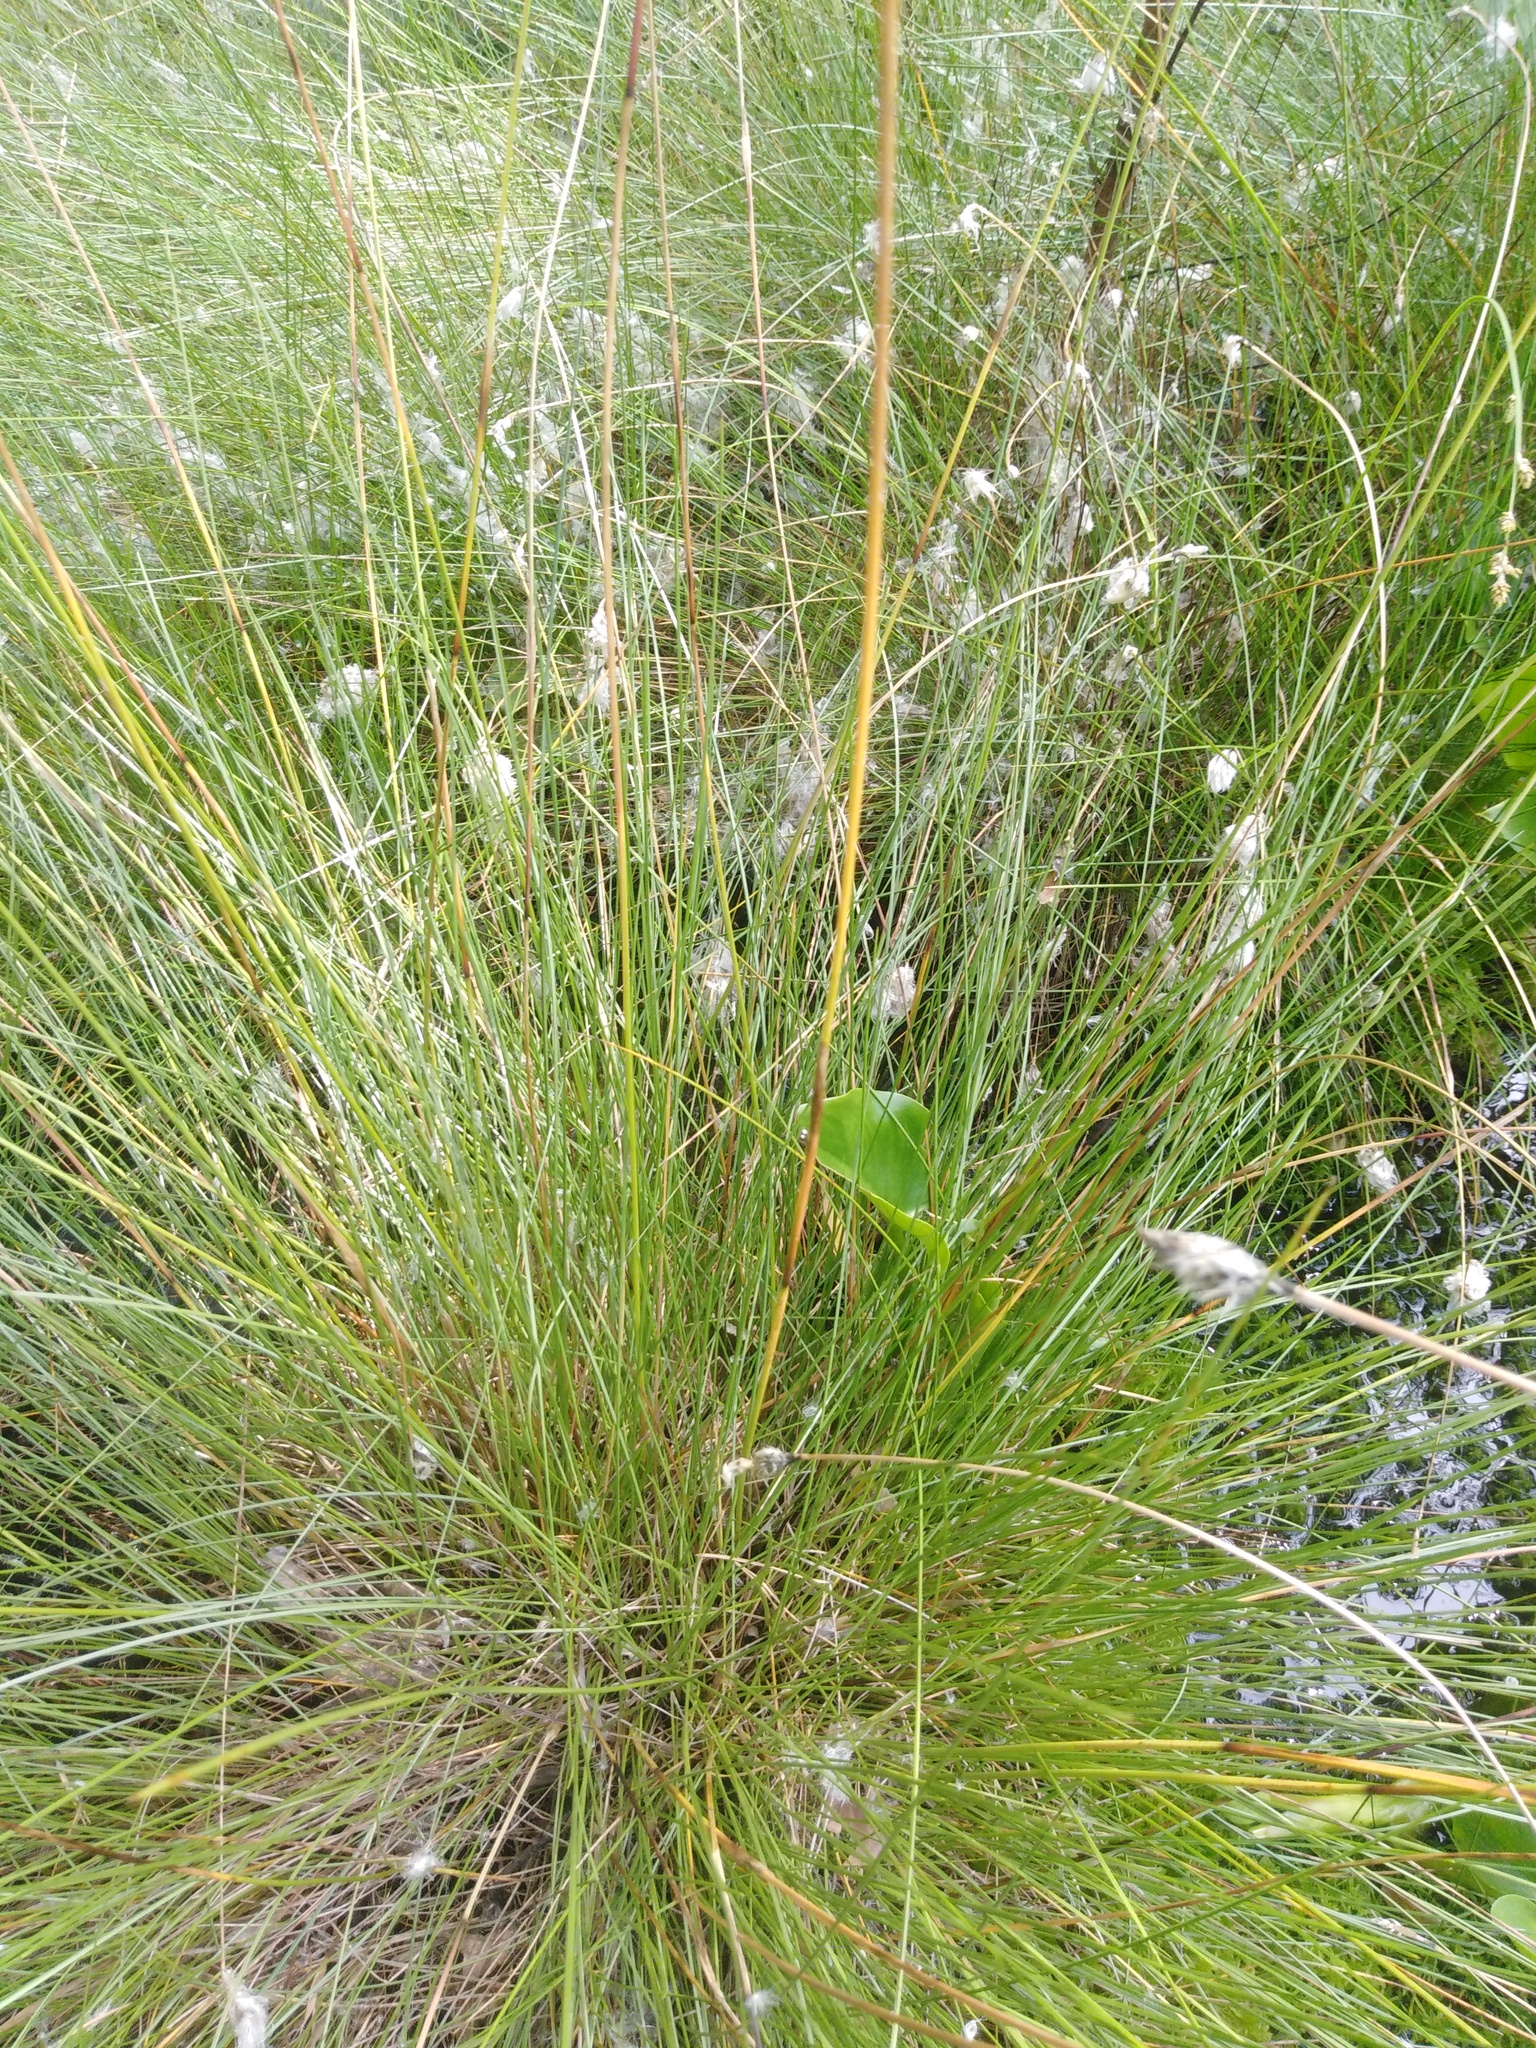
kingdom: Plantae
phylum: Tracheophyta
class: Liliopsida
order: Poales
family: Cyperaceae
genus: Eriophorum
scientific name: Eriophorum vaginatum
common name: Hare's-tail cottongrass
